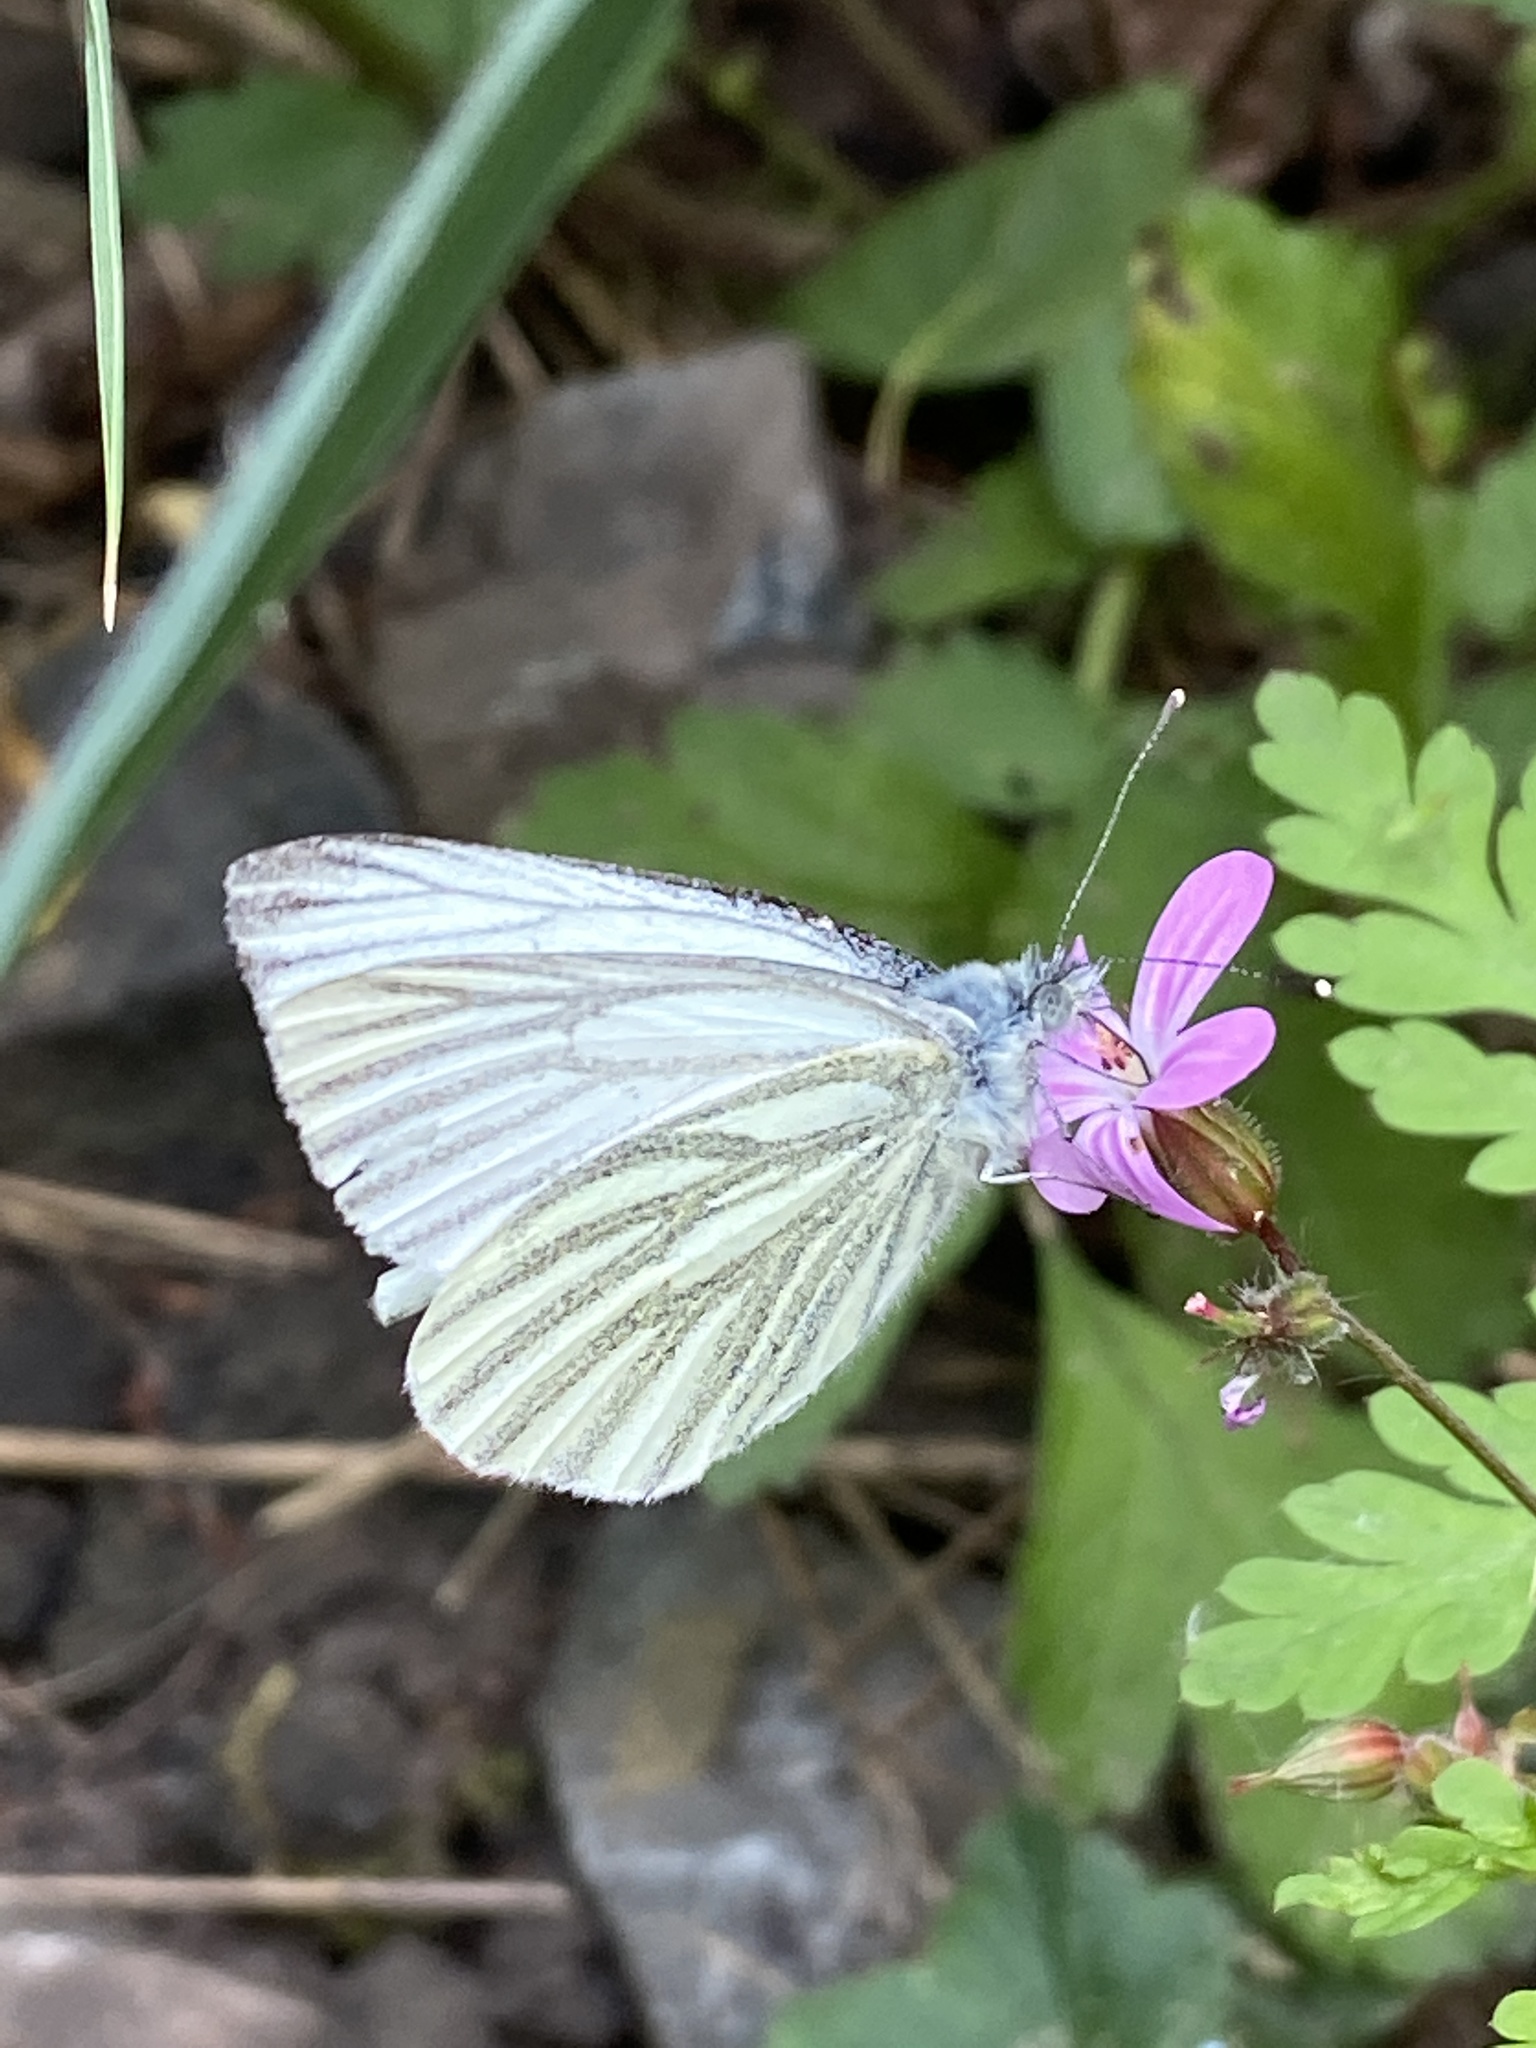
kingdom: Animalia
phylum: Arthropoda
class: Insecta
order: Lepidoptera
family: Pieridae
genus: Pieris
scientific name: Pieris napi
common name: Green-veined white
